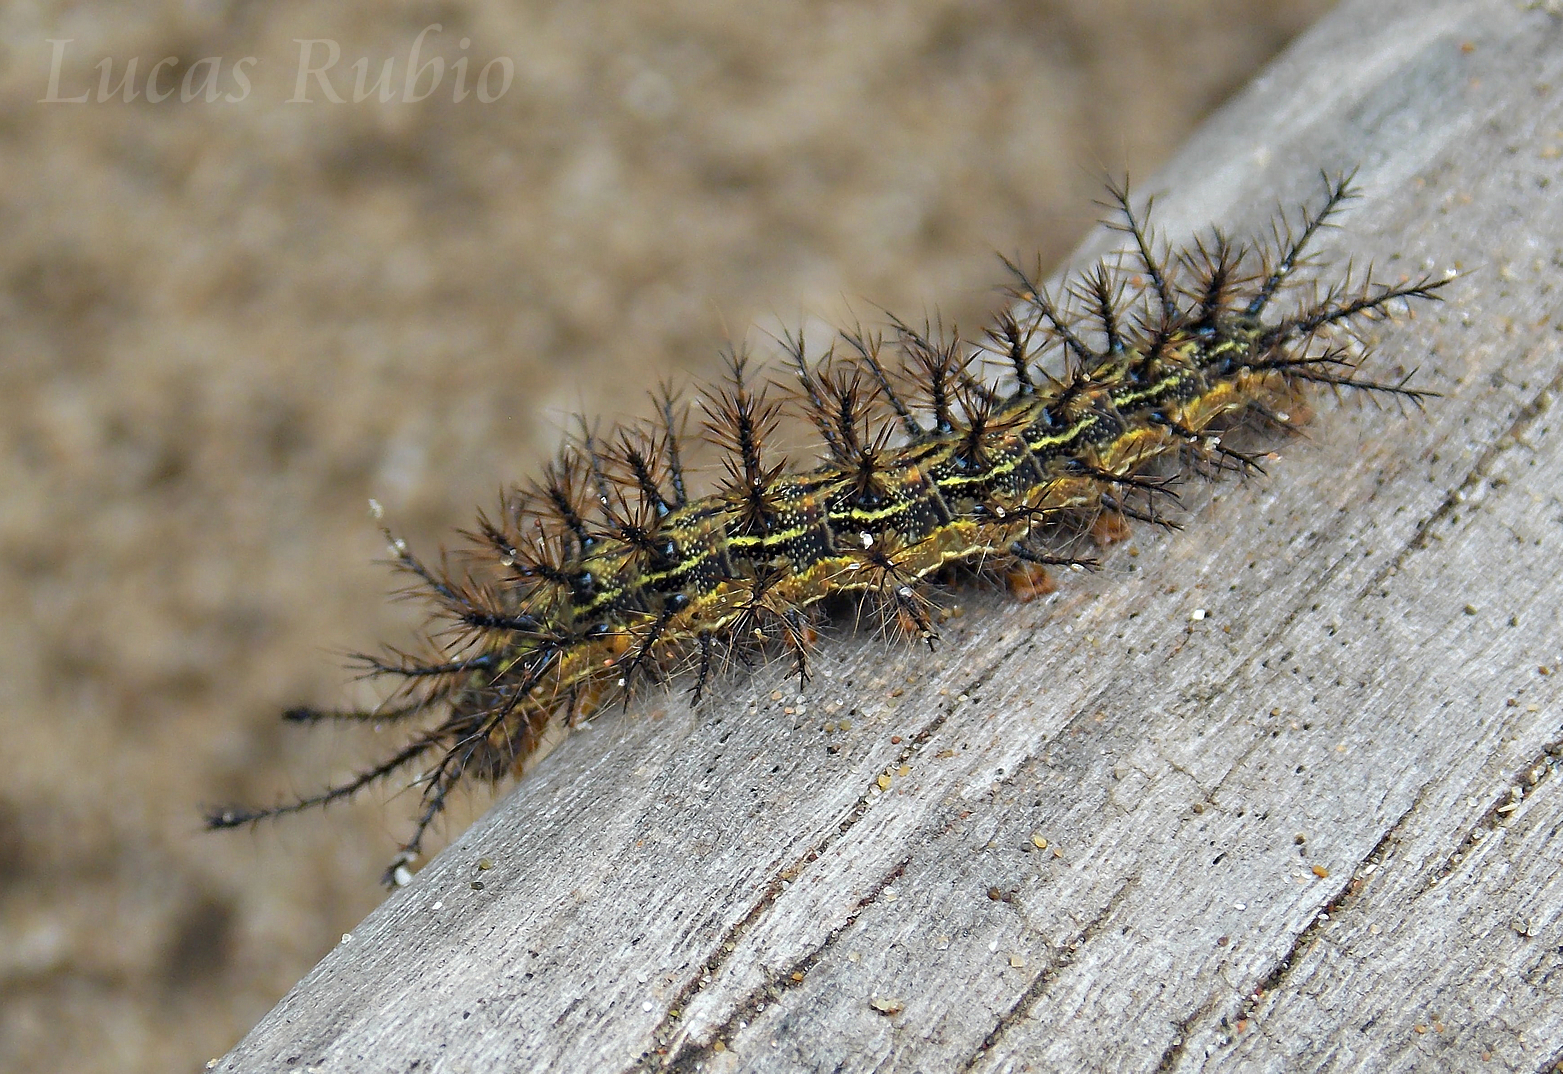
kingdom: Animalia
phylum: Arthropoda
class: Insecta
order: Lepidoptera
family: Saturniidae
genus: Hylesia
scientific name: Hylesia nigricans
